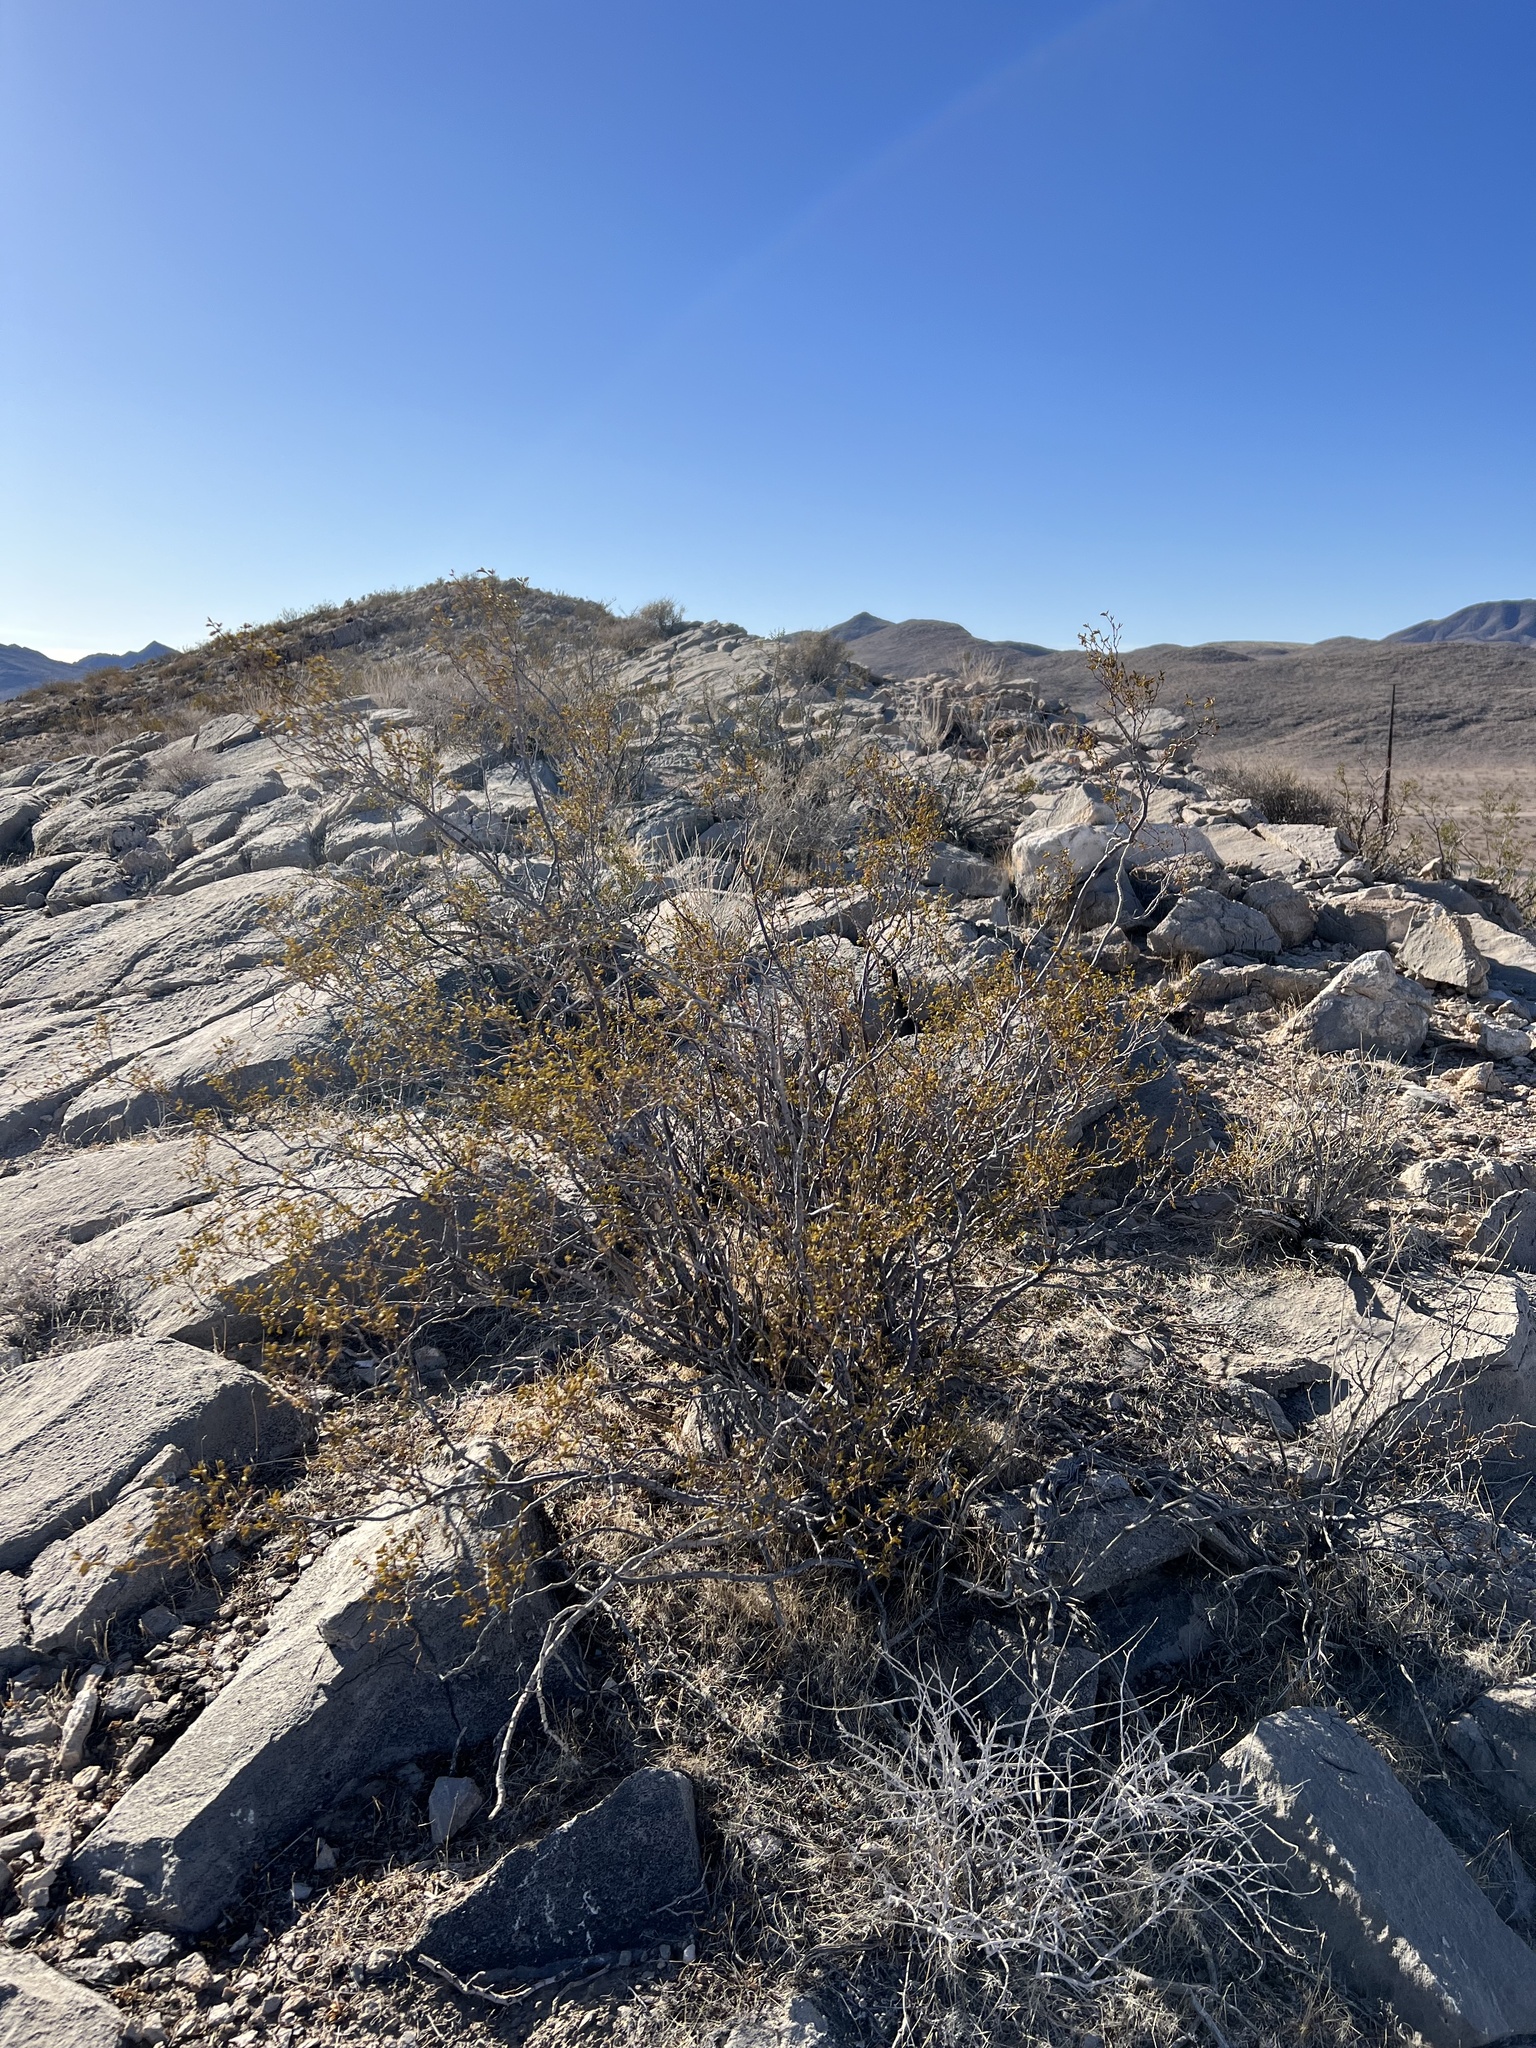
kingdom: Plantae
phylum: Tracheophyta
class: Magnoliopsida
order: Zygophyllales
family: Zygophyllaceae
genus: Larrea
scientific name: Larrea tridentata
